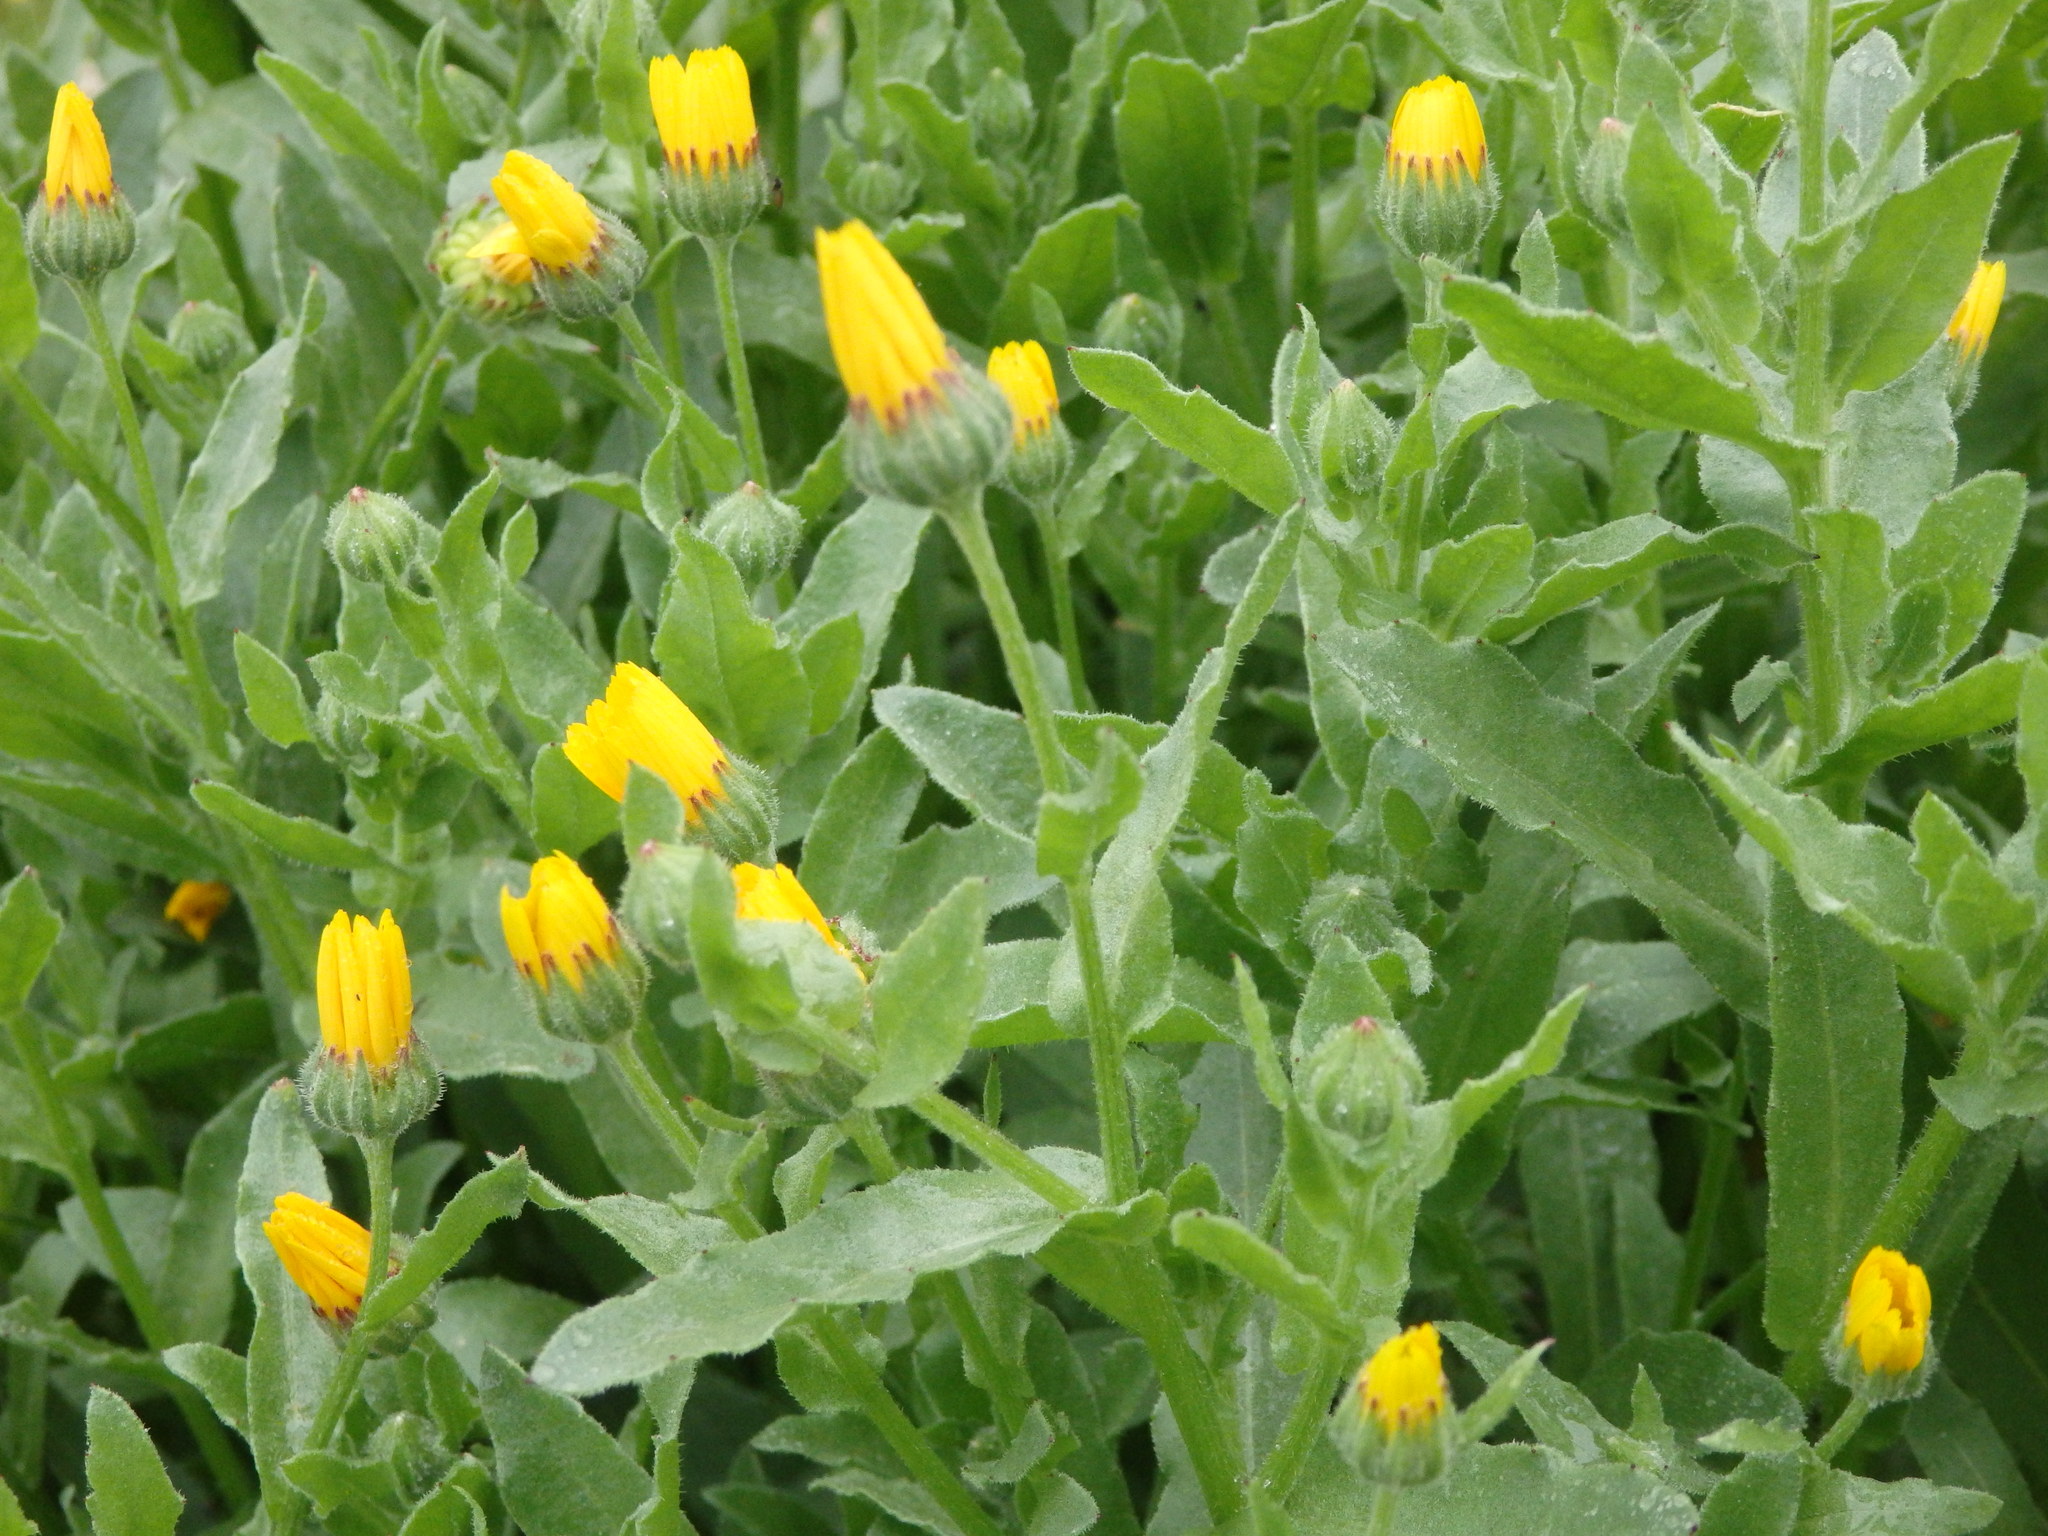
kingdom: Plantae
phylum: Tracheophyta
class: Magnoliopsida
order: Asterales
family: Asteraceae
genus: Calendula
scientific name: Calendula arvensis
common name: Field marigold
